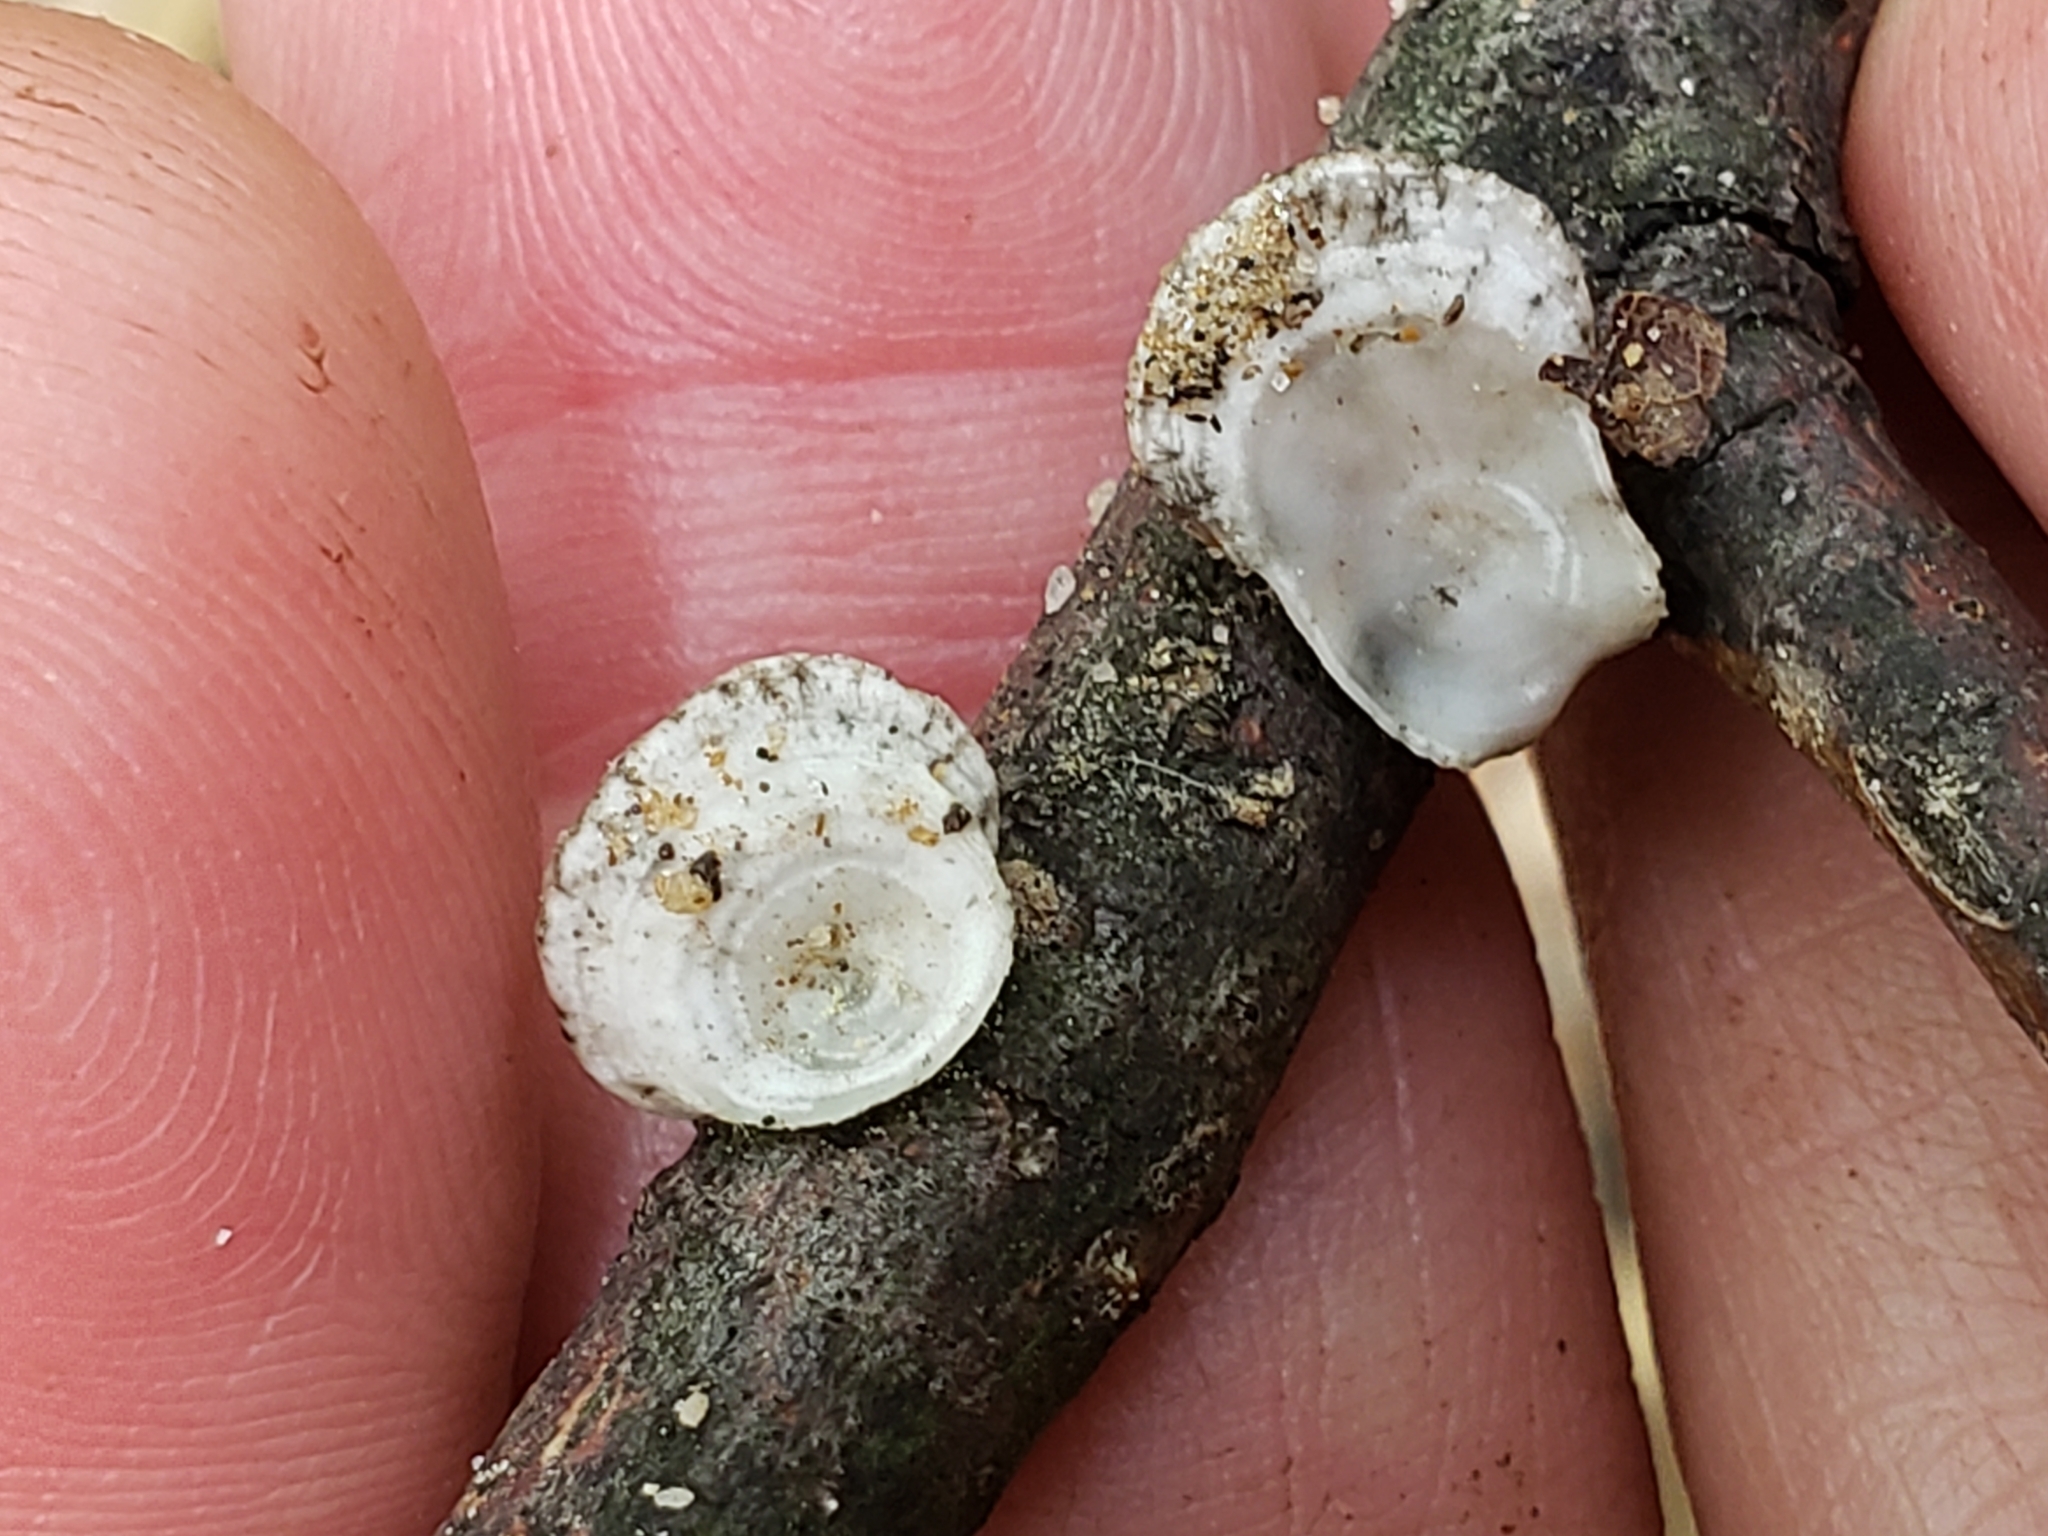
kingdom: Fungi
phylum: Basidiomycota
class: Agaricomycetes
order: Polyporales
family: Polyporaceae
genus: Poronidulus
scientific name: Poronidulus conchifer
